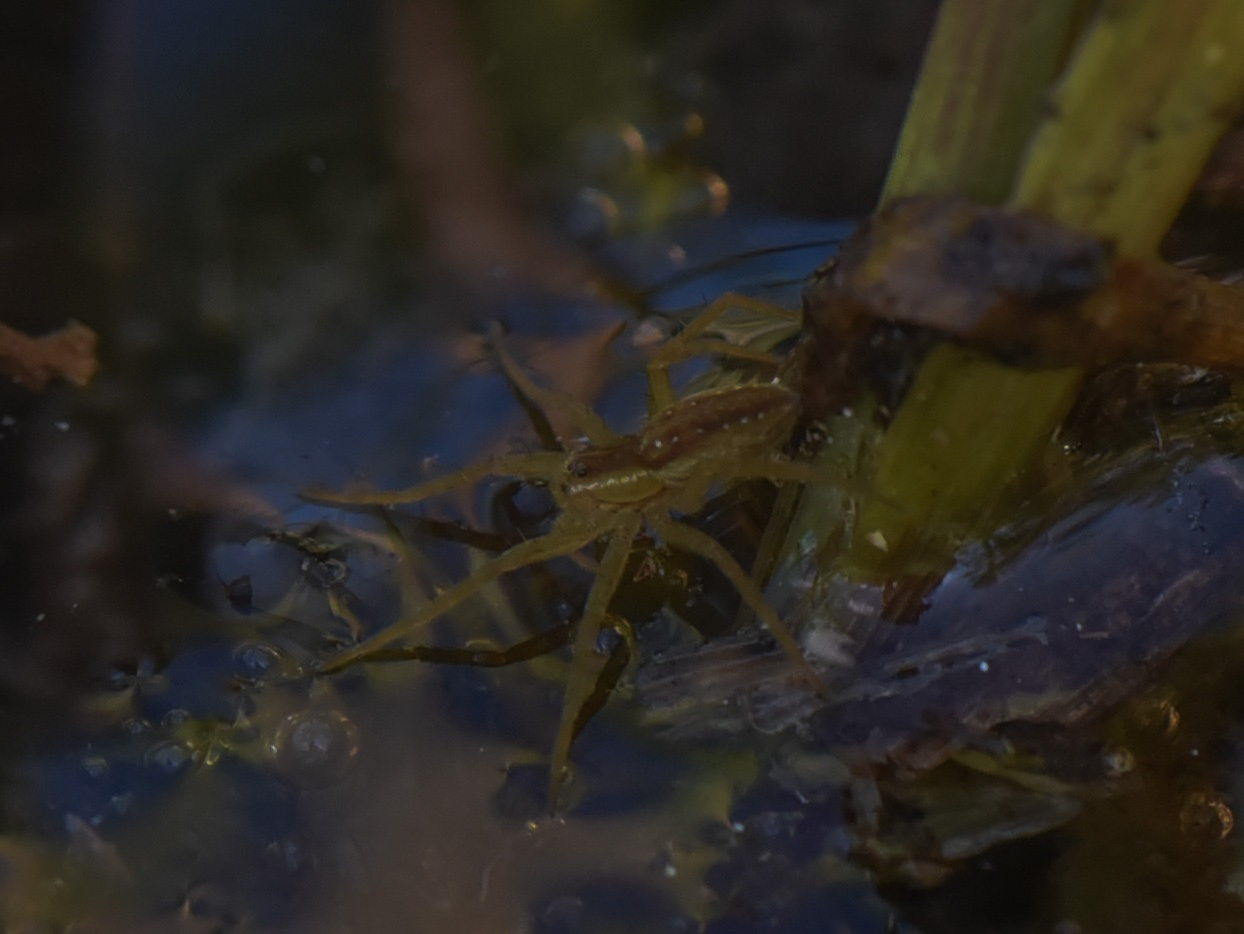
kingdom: Animalia
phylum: Arthropoda
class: Arachnida
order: Araneae
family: Pisauridae
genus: Dolomedes
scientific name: Dolomedes triton
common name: Six-spotted fishing spider
